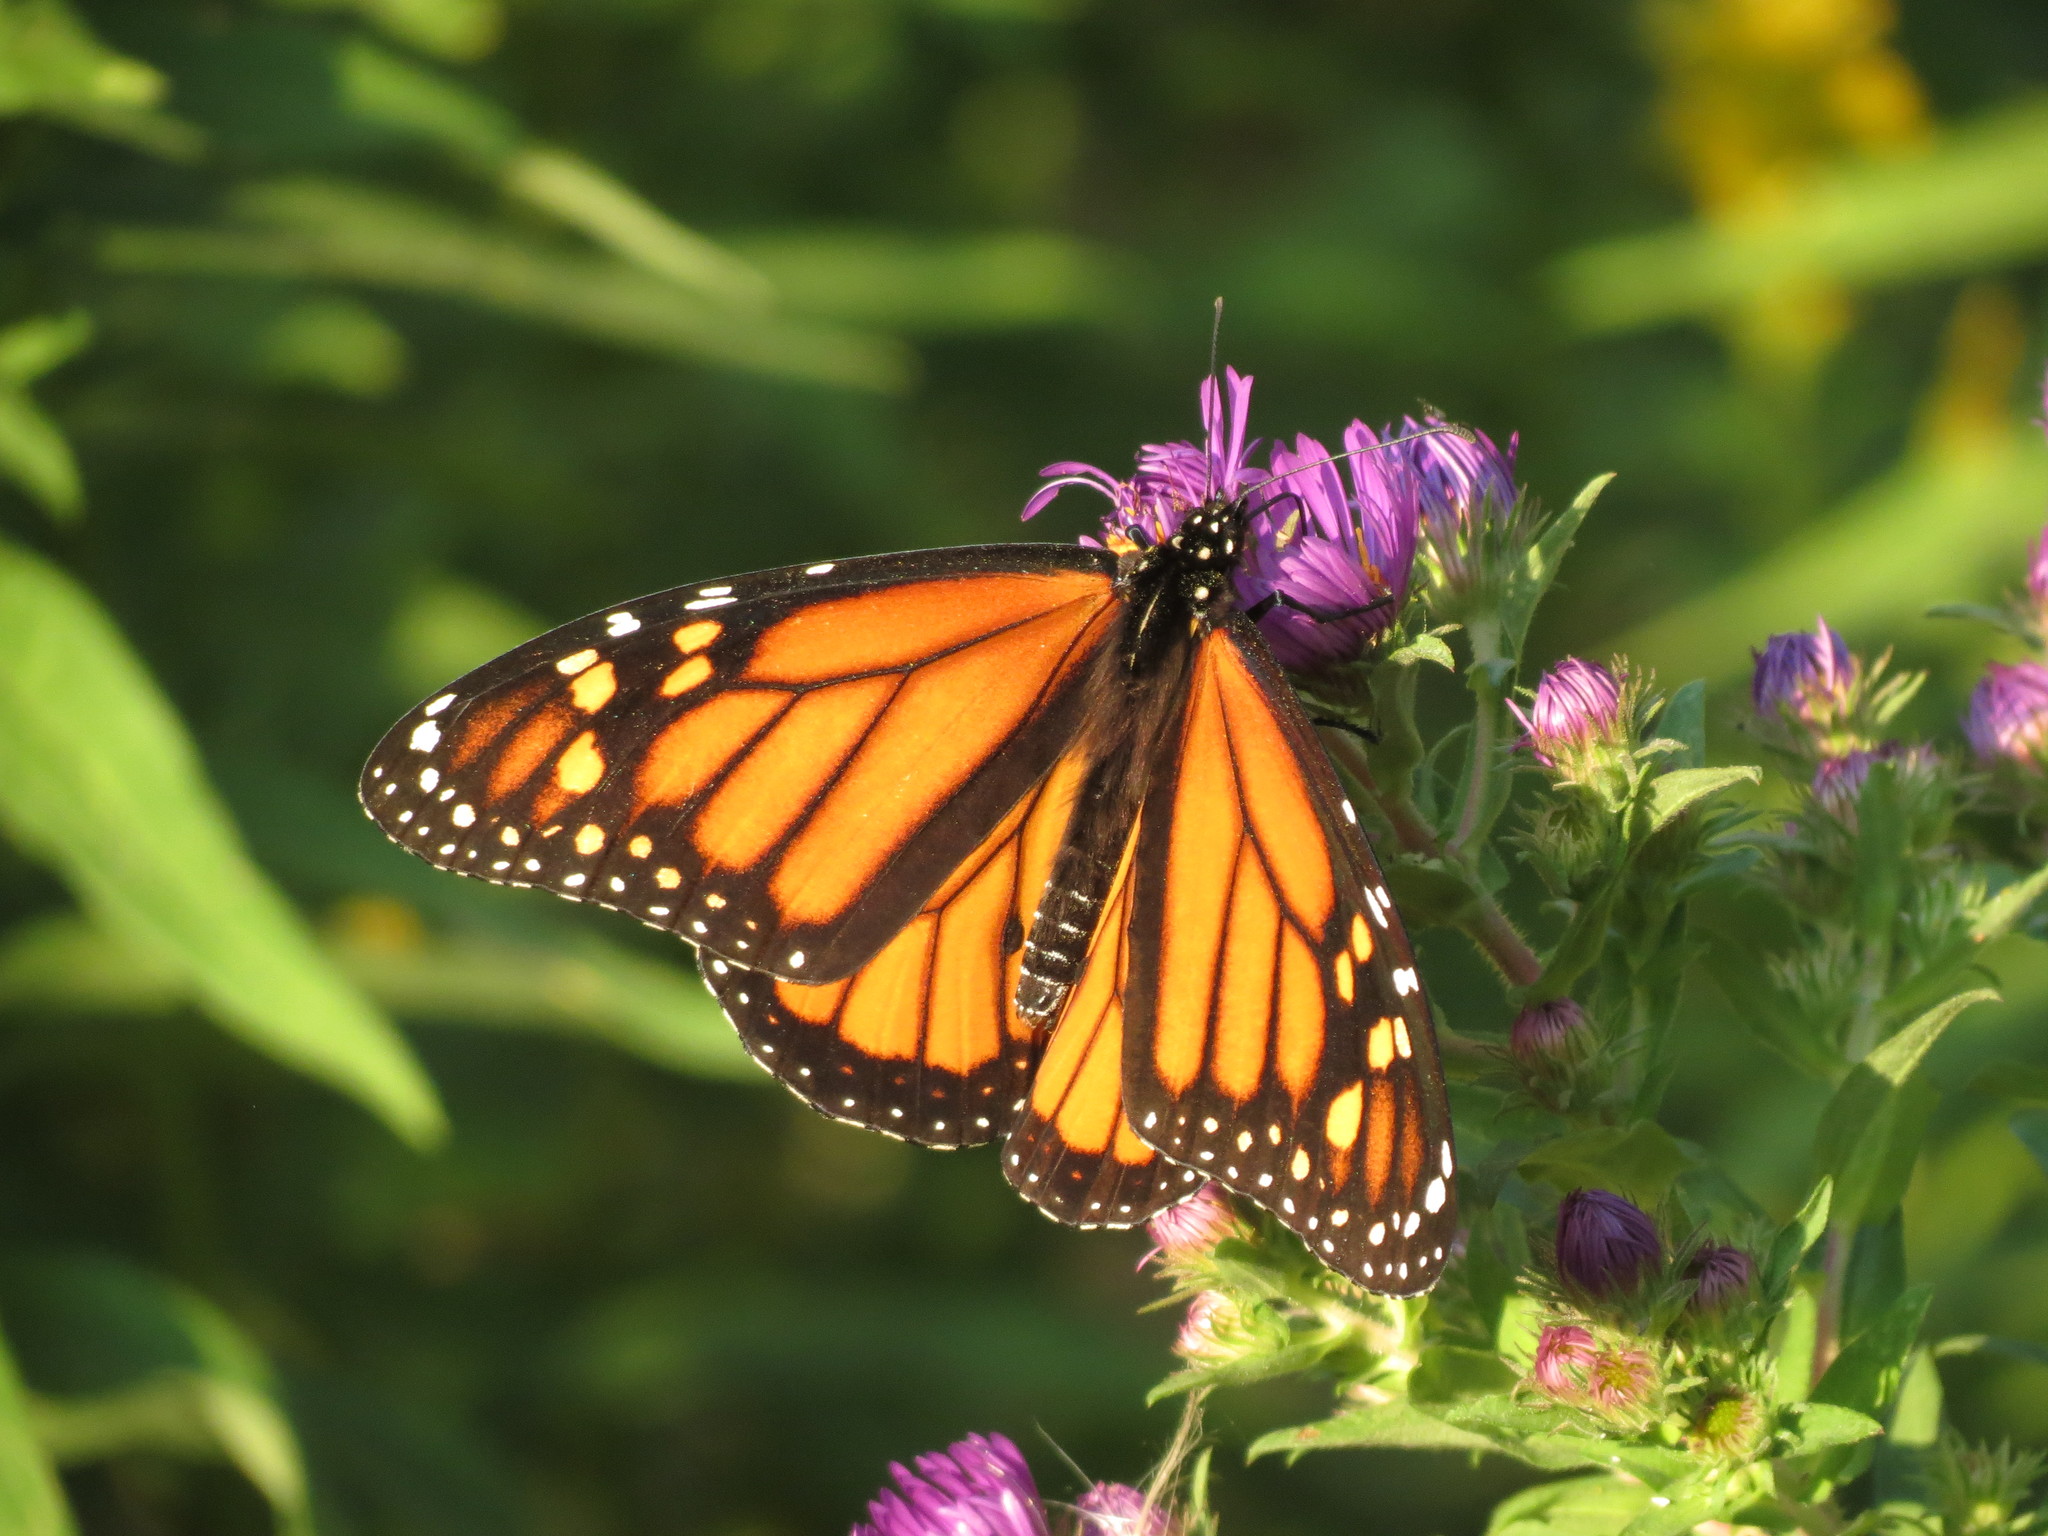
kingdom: Animalia
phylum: Arthropoda
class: Insecta
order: Lepidoptera
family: Nymphalidae
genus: Danaus
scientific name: Danaus plexippus
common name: Monarch
